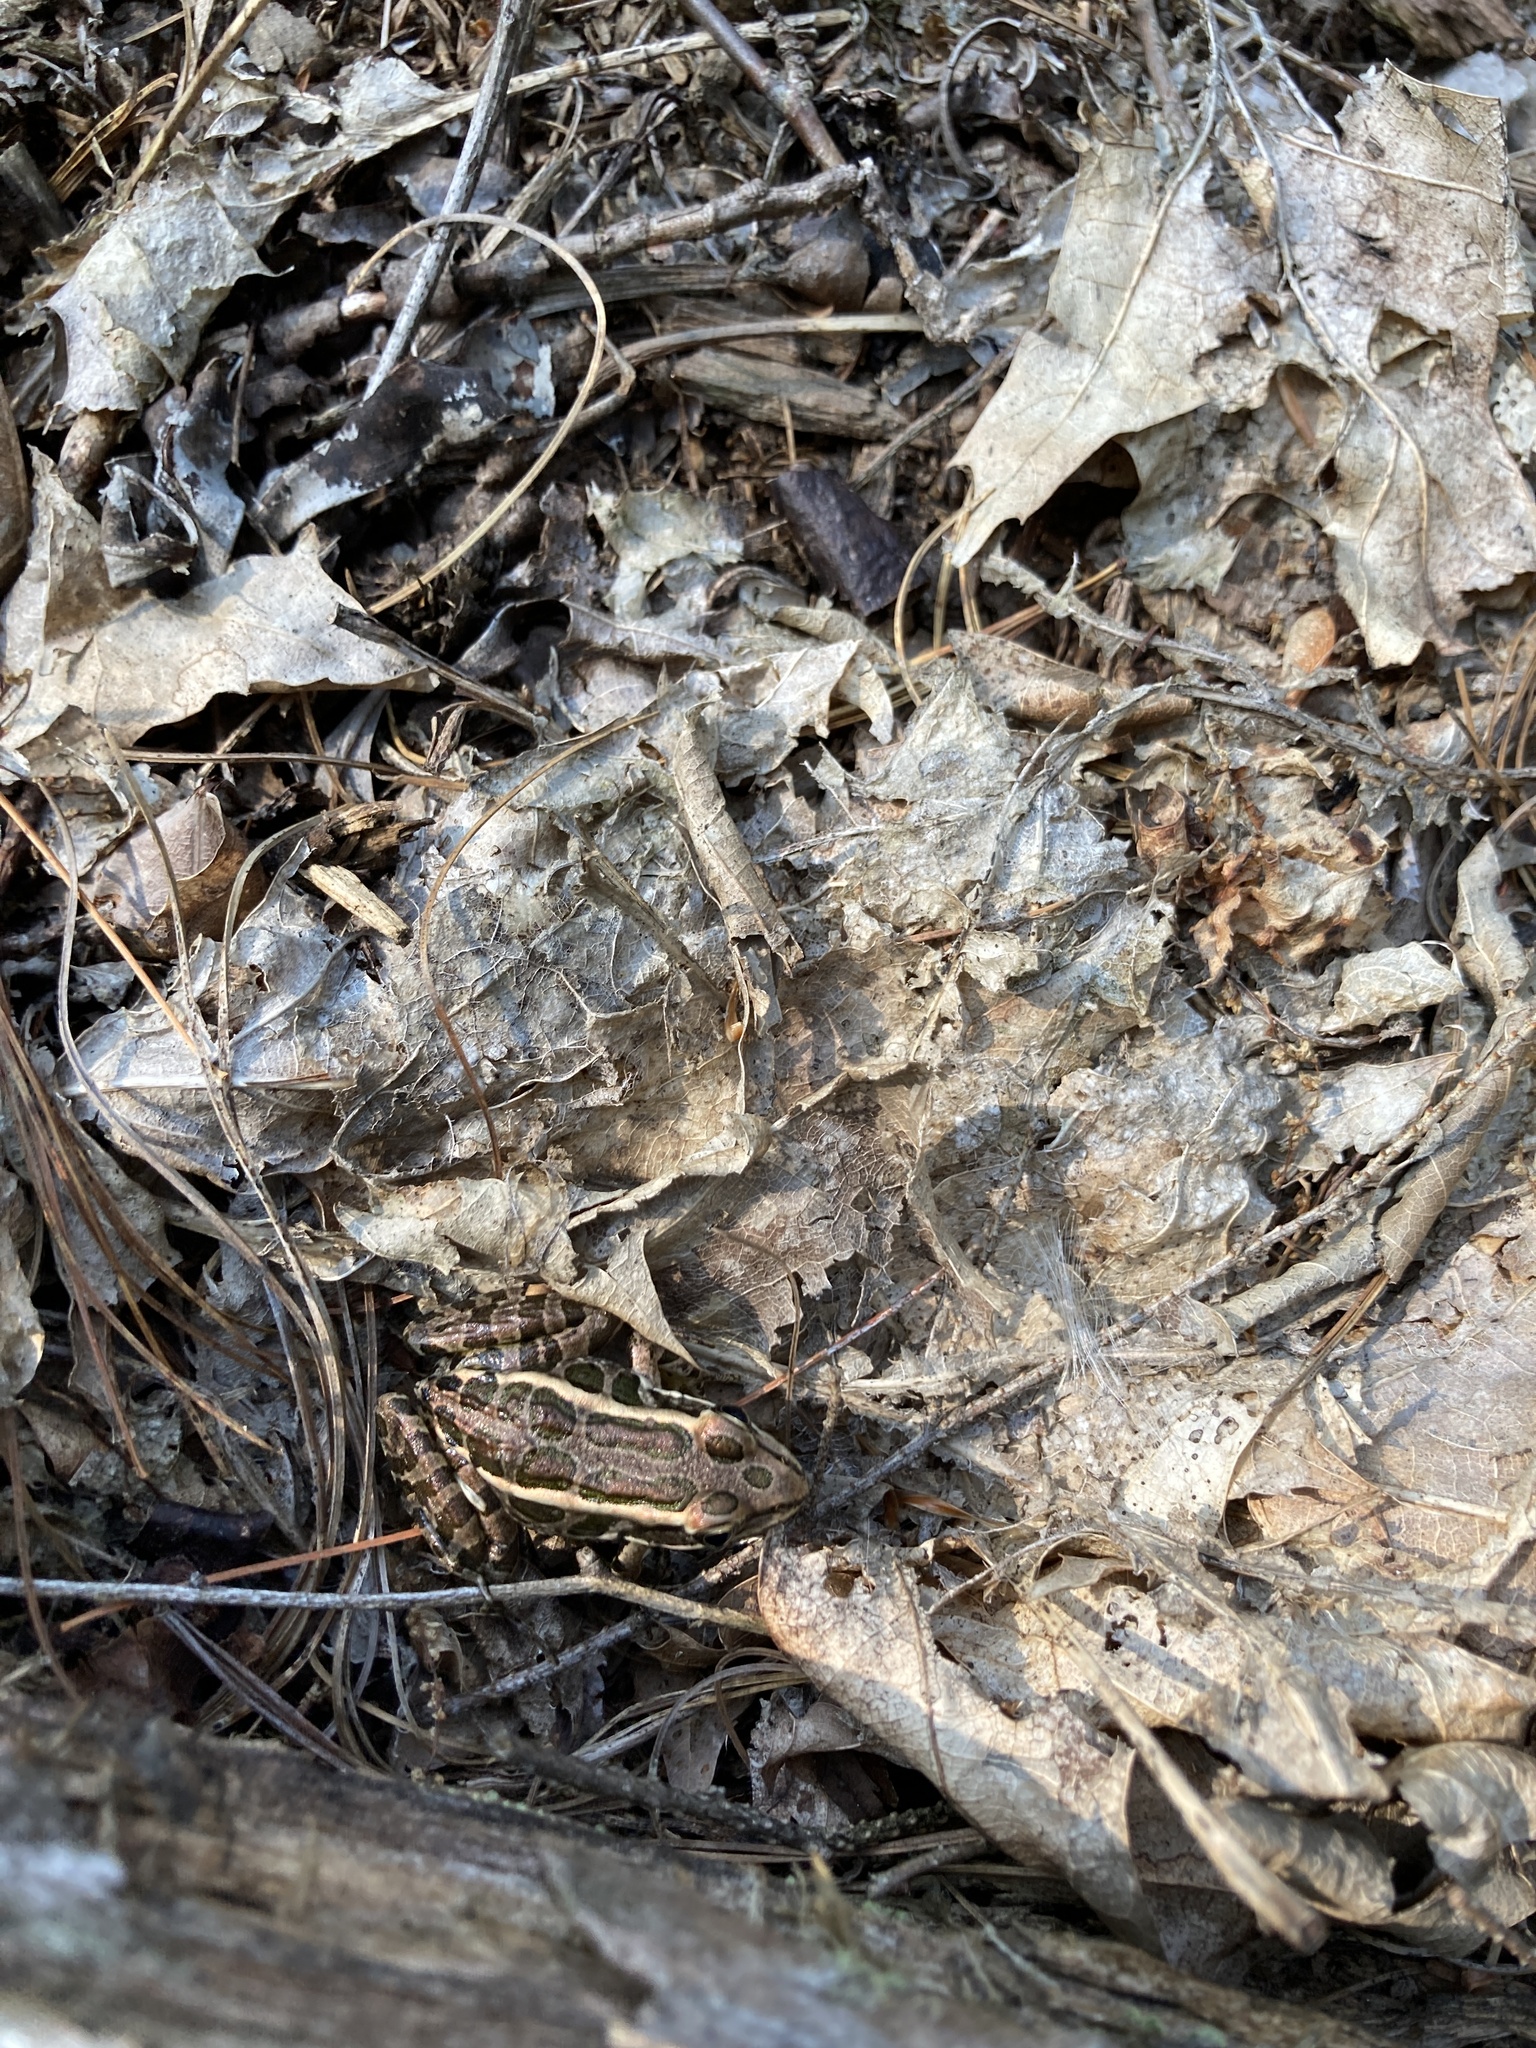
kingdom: Animalia
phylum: Chordata
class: Amphibia
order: Anura
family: Ranidae
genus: Lithobates
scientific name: Lithobates palustris
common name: Pickerel frog
